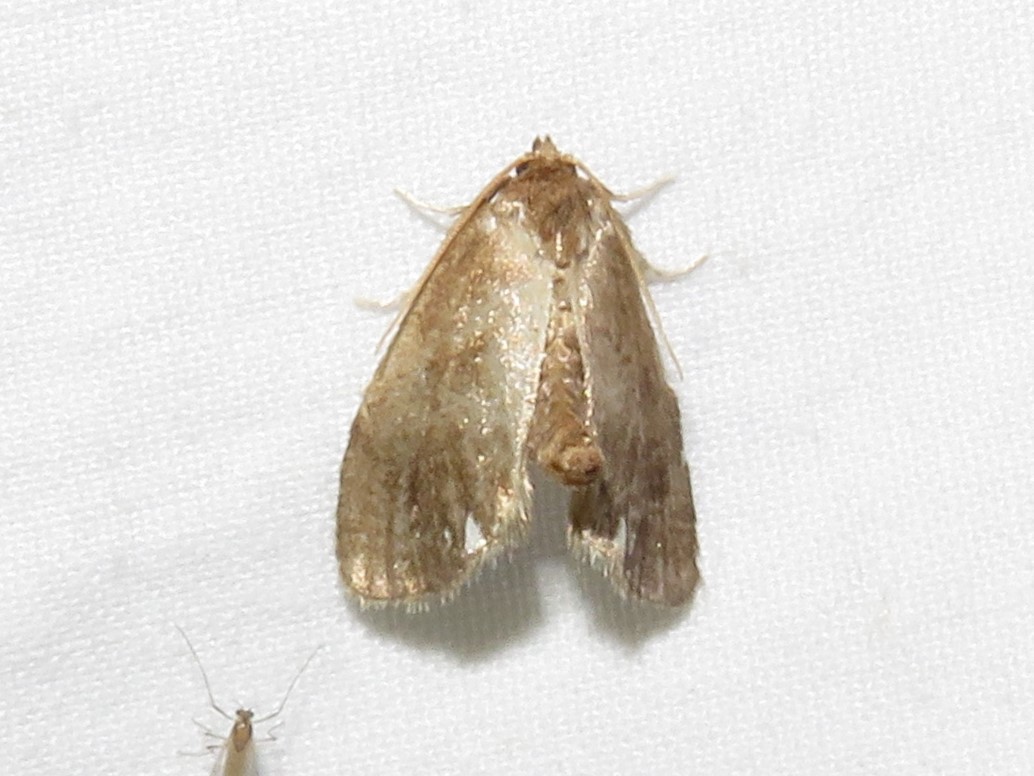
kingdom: Animalia
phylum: Arthropoda
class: Insecta
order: Lepidoptera
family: Limacodidae
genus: Packardia
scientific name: Packardia geminata
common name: Jeweled tailed slug moth
